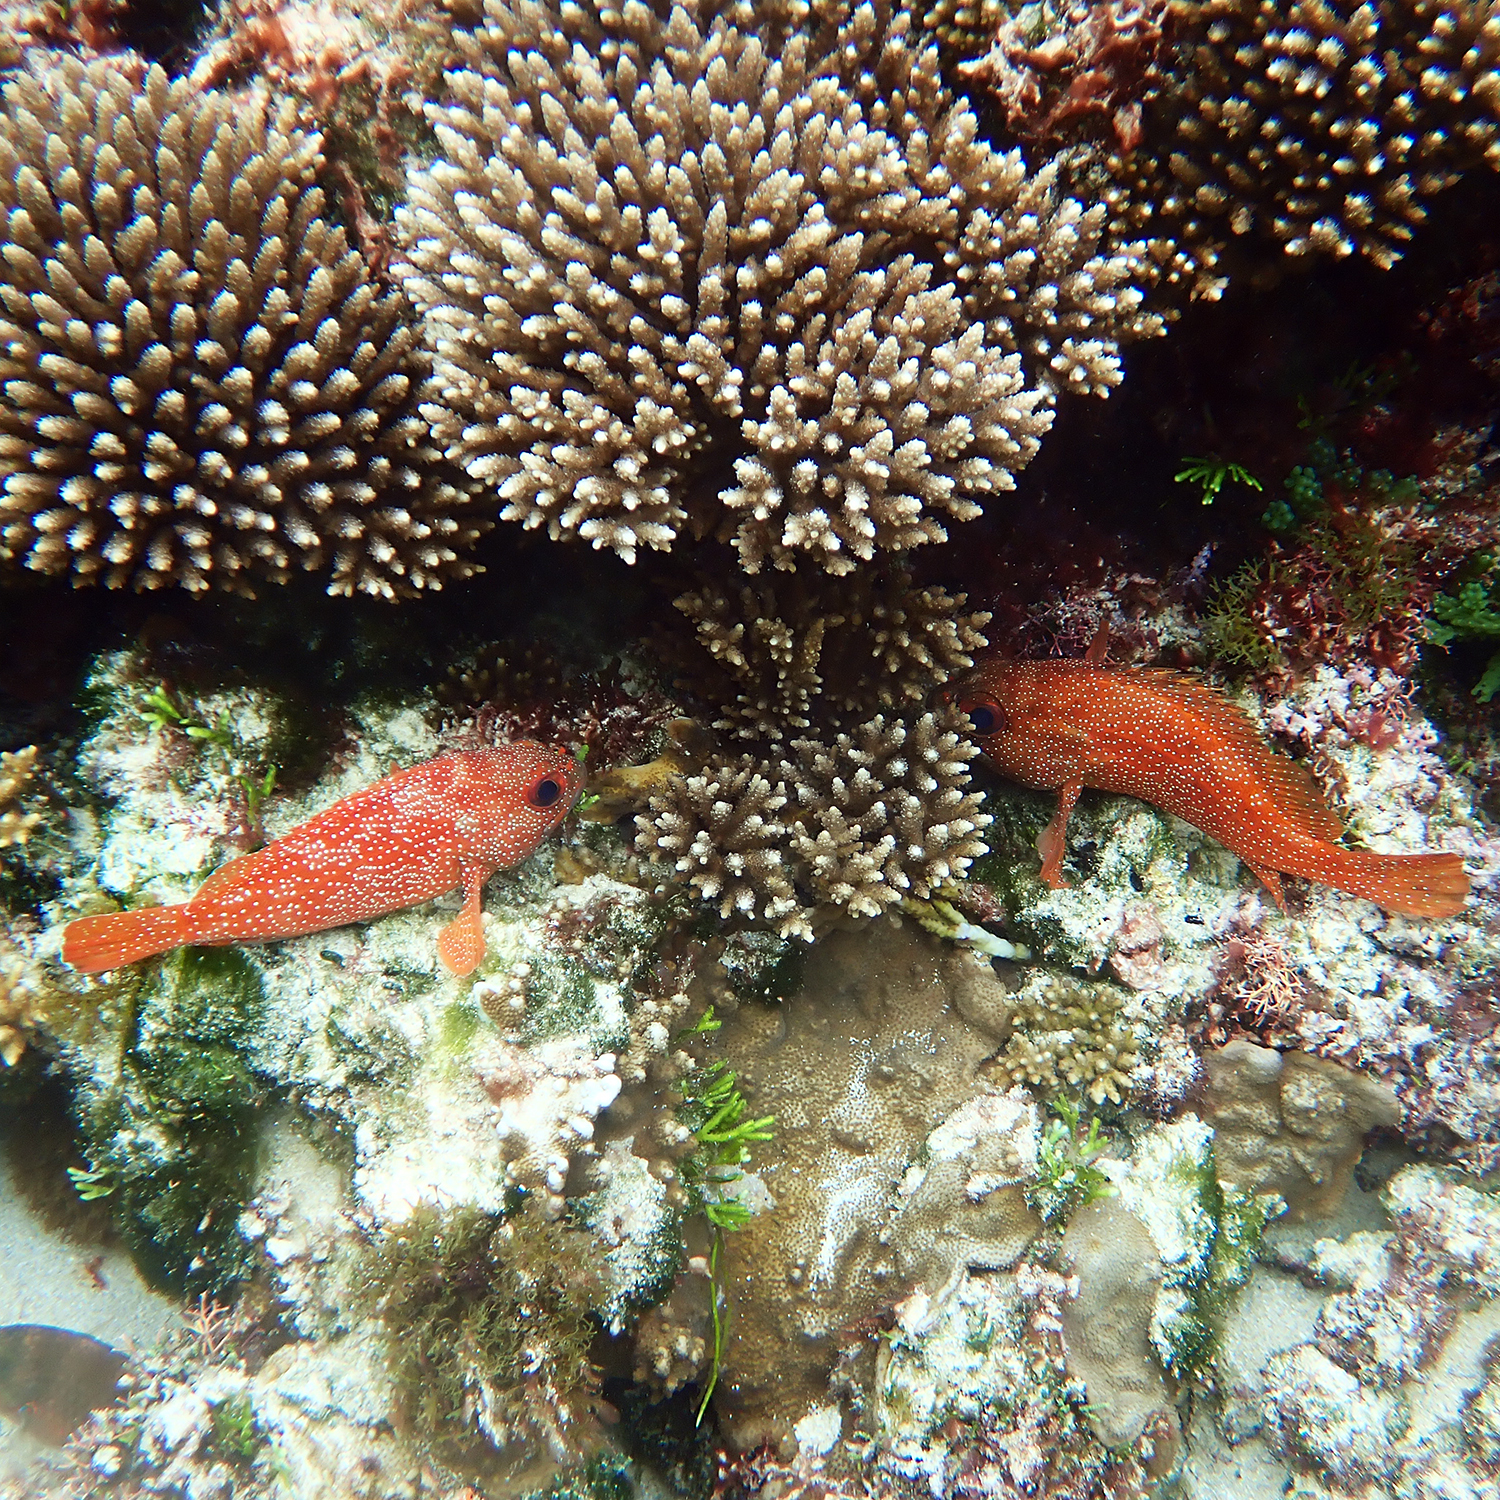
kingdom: Animalia
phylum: Chordata
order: Perciformes
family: Serranidae
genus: Trachypoma
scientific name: Trachypoma macracanthus
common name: Toadstool grouper
